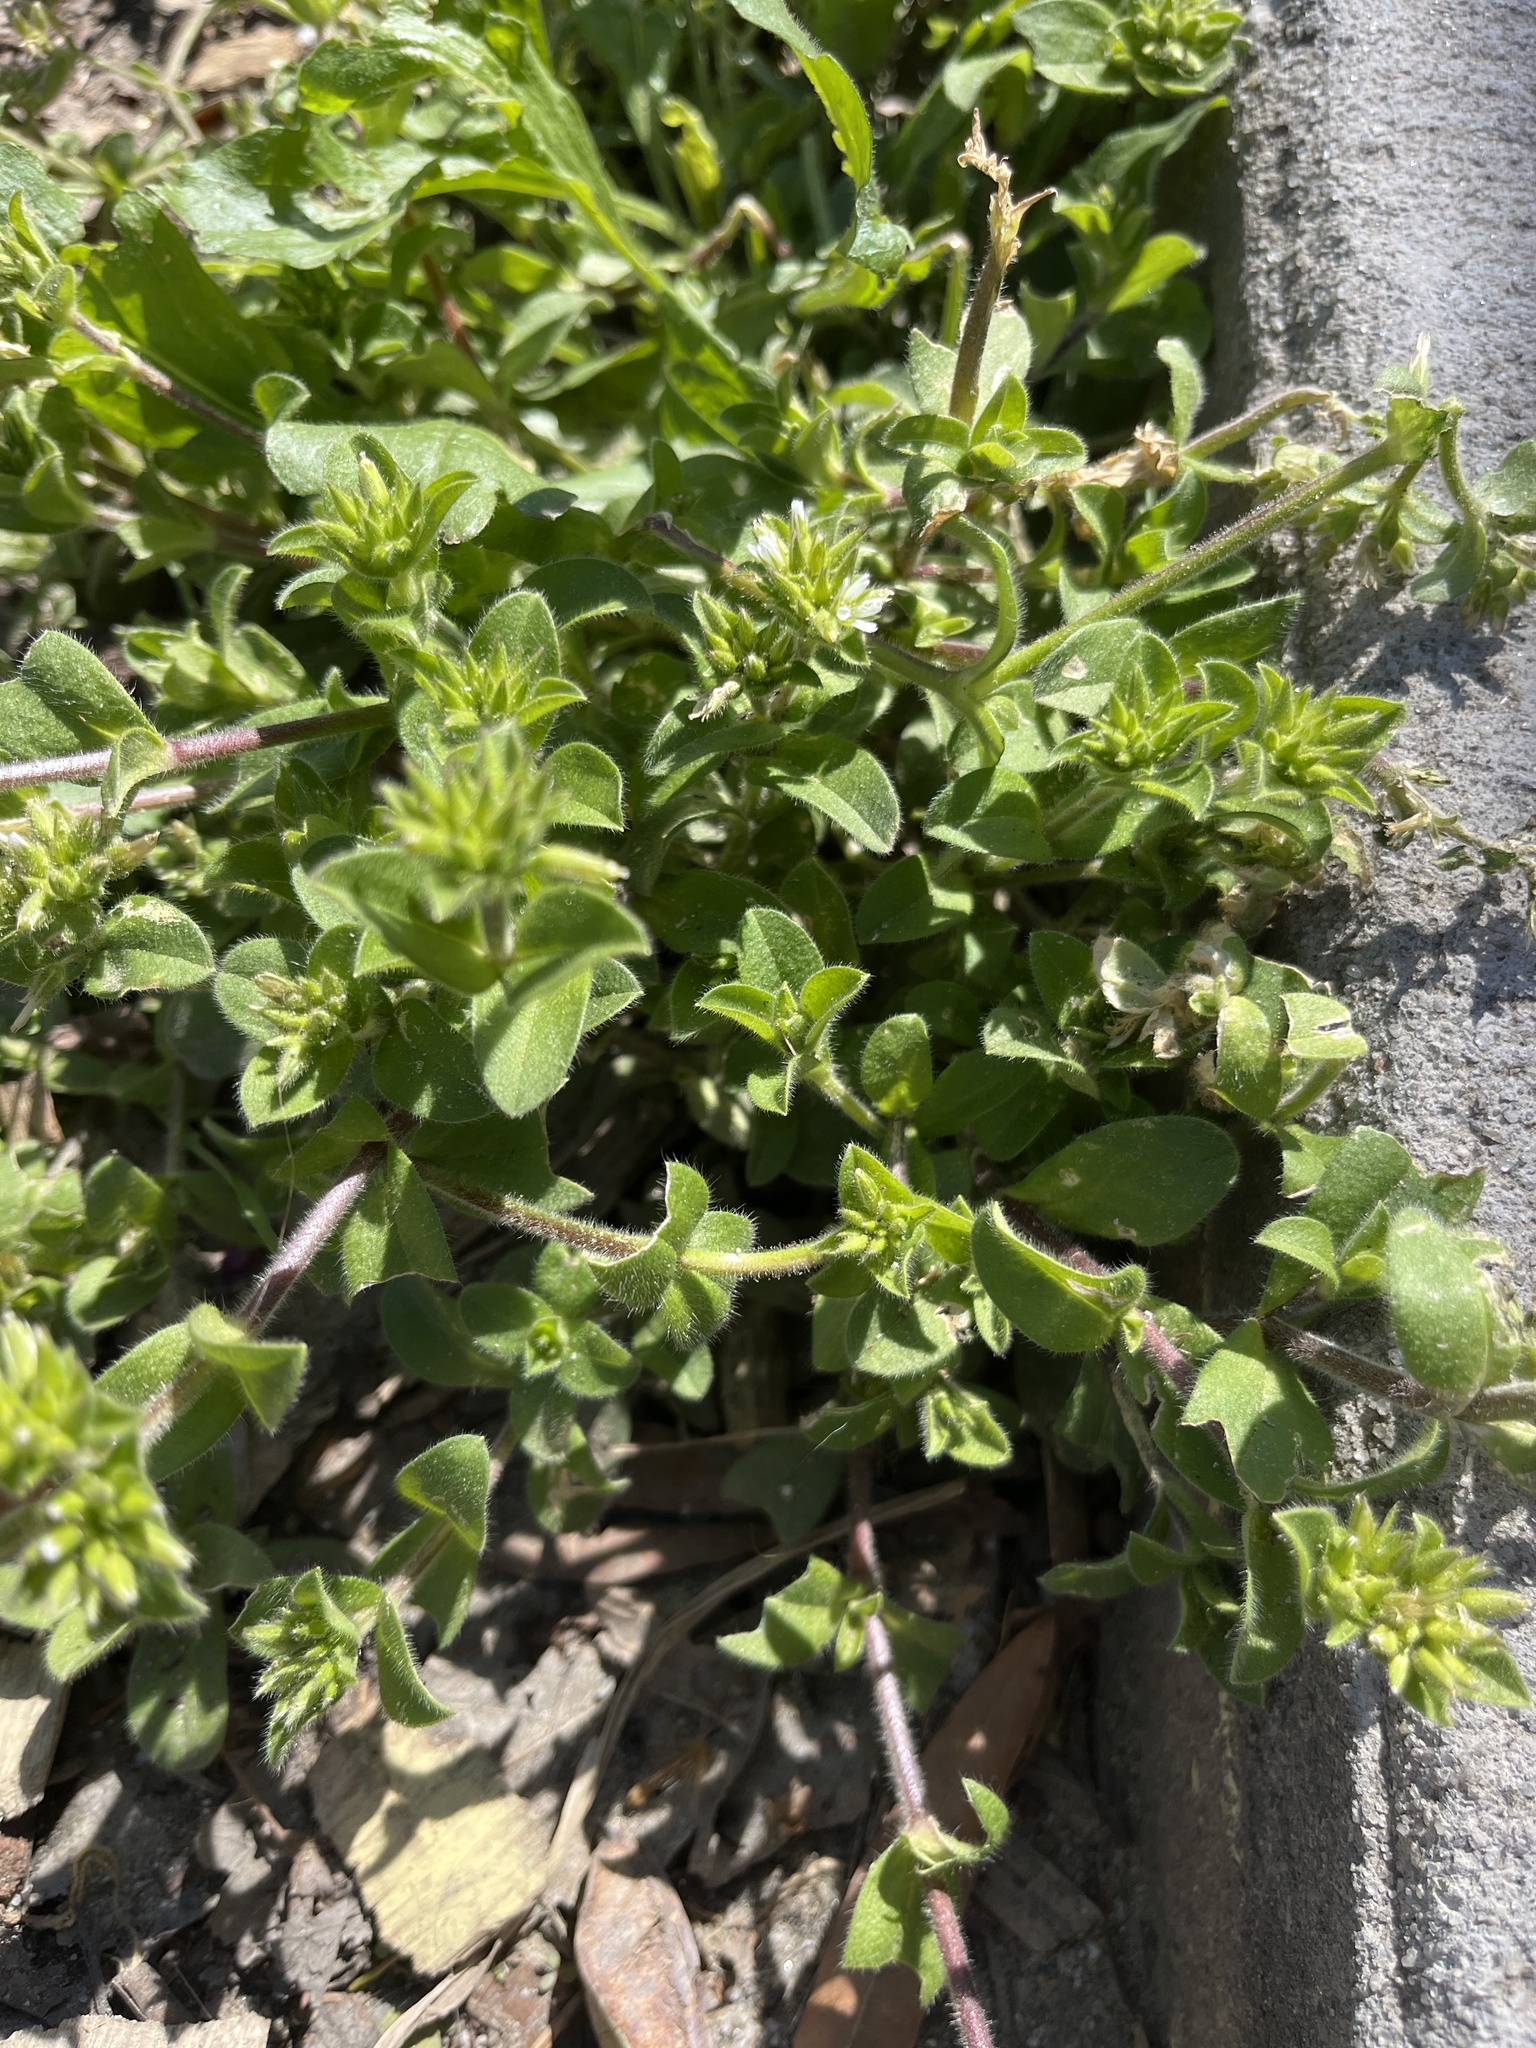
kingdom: Plantae
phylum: Tracheophyta
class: Magnoliopsida
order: Caryophyllales
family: Caryophyllaceae
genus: Cerastium
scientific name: Cerastium glomeratum
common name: Sticky chickweed
